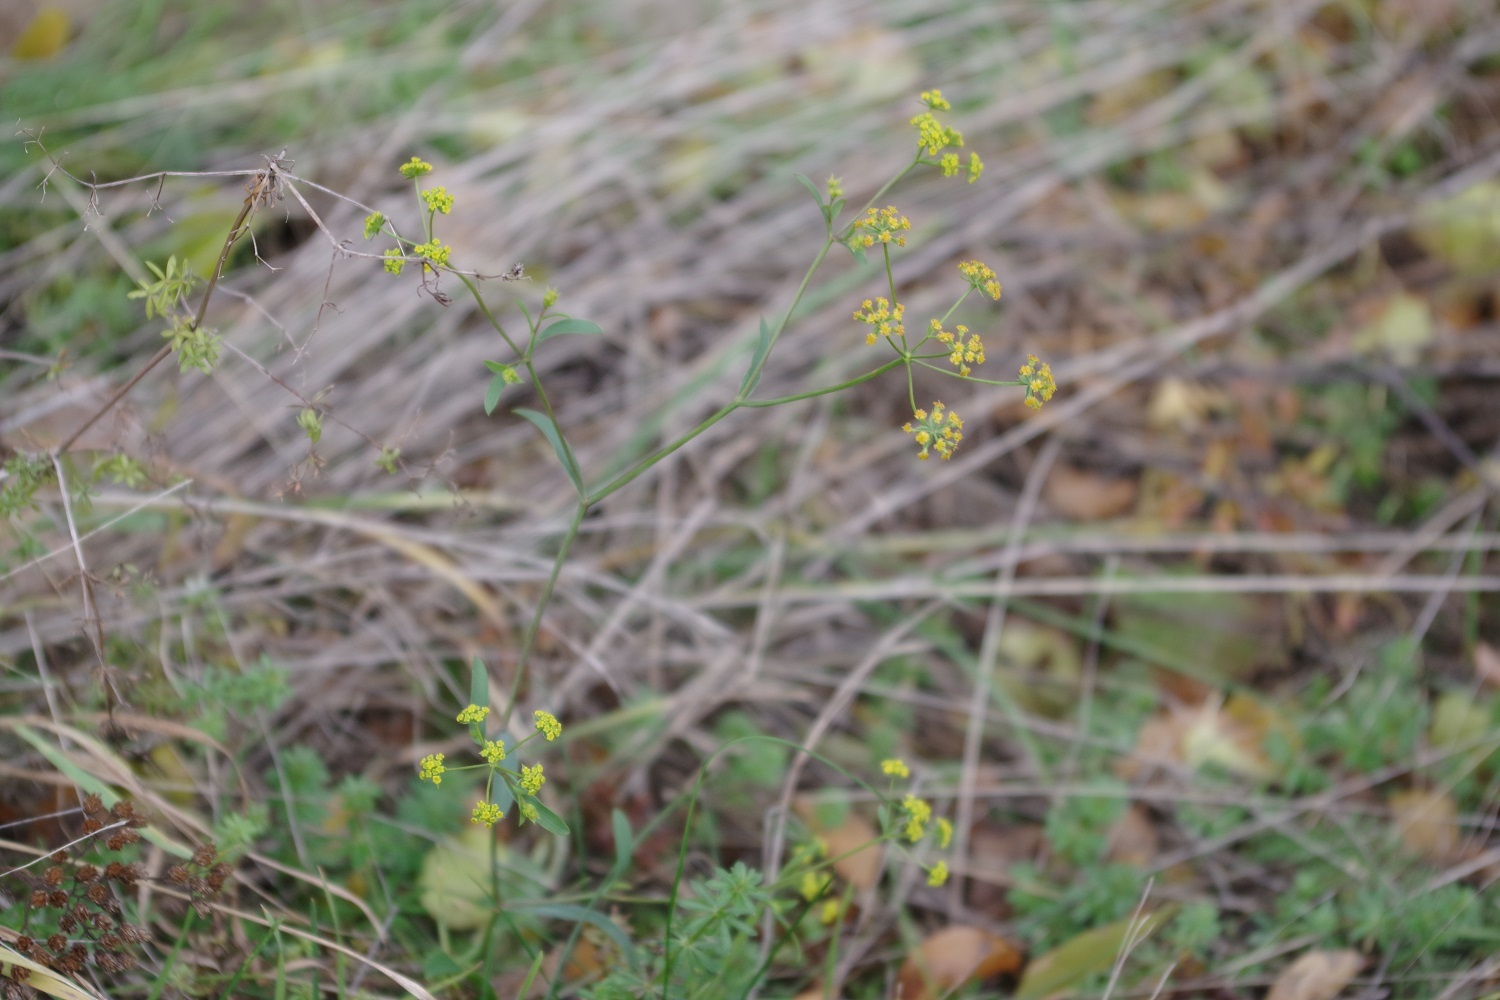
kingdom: Plantae
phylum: Tracheophyta
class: Magnoliopsida
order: Apiales
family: Apiaceae
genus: Bupleurum
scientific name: Bupleurum falcatum
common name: Sickle-leaved hare's-ear
